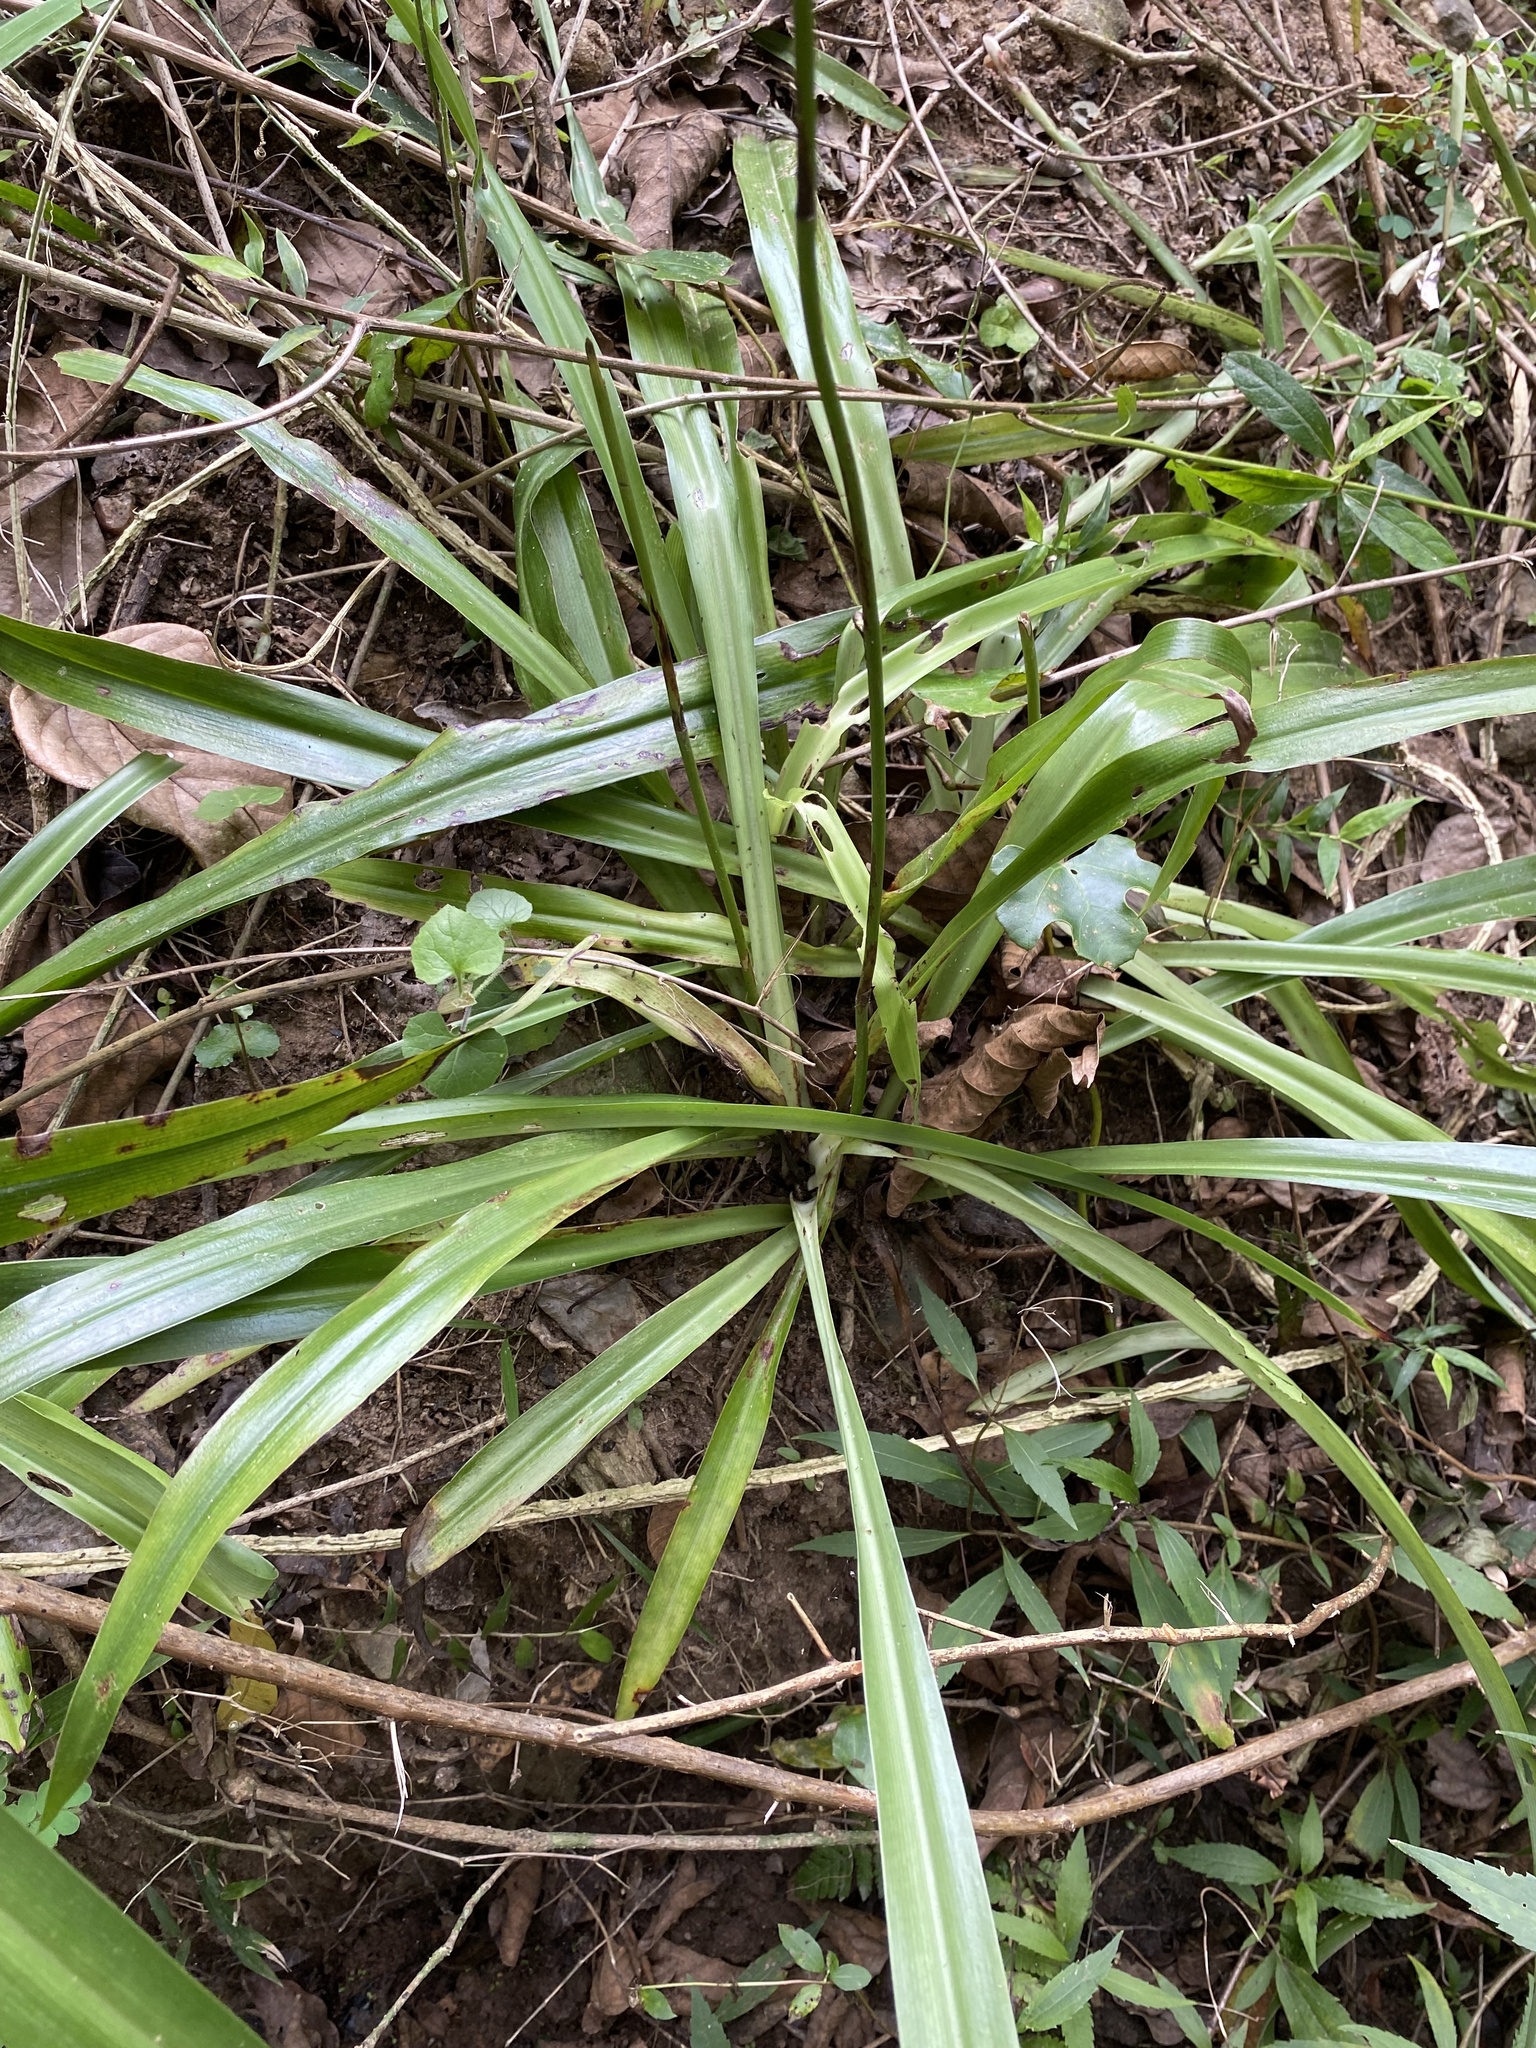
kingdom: Plantae
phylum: Tracheophyta
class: Liliopsida
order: Asparagales
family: Asparagaceae
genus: Chlorophytum
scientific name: Chlorophytum comosum
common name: Spider plant
